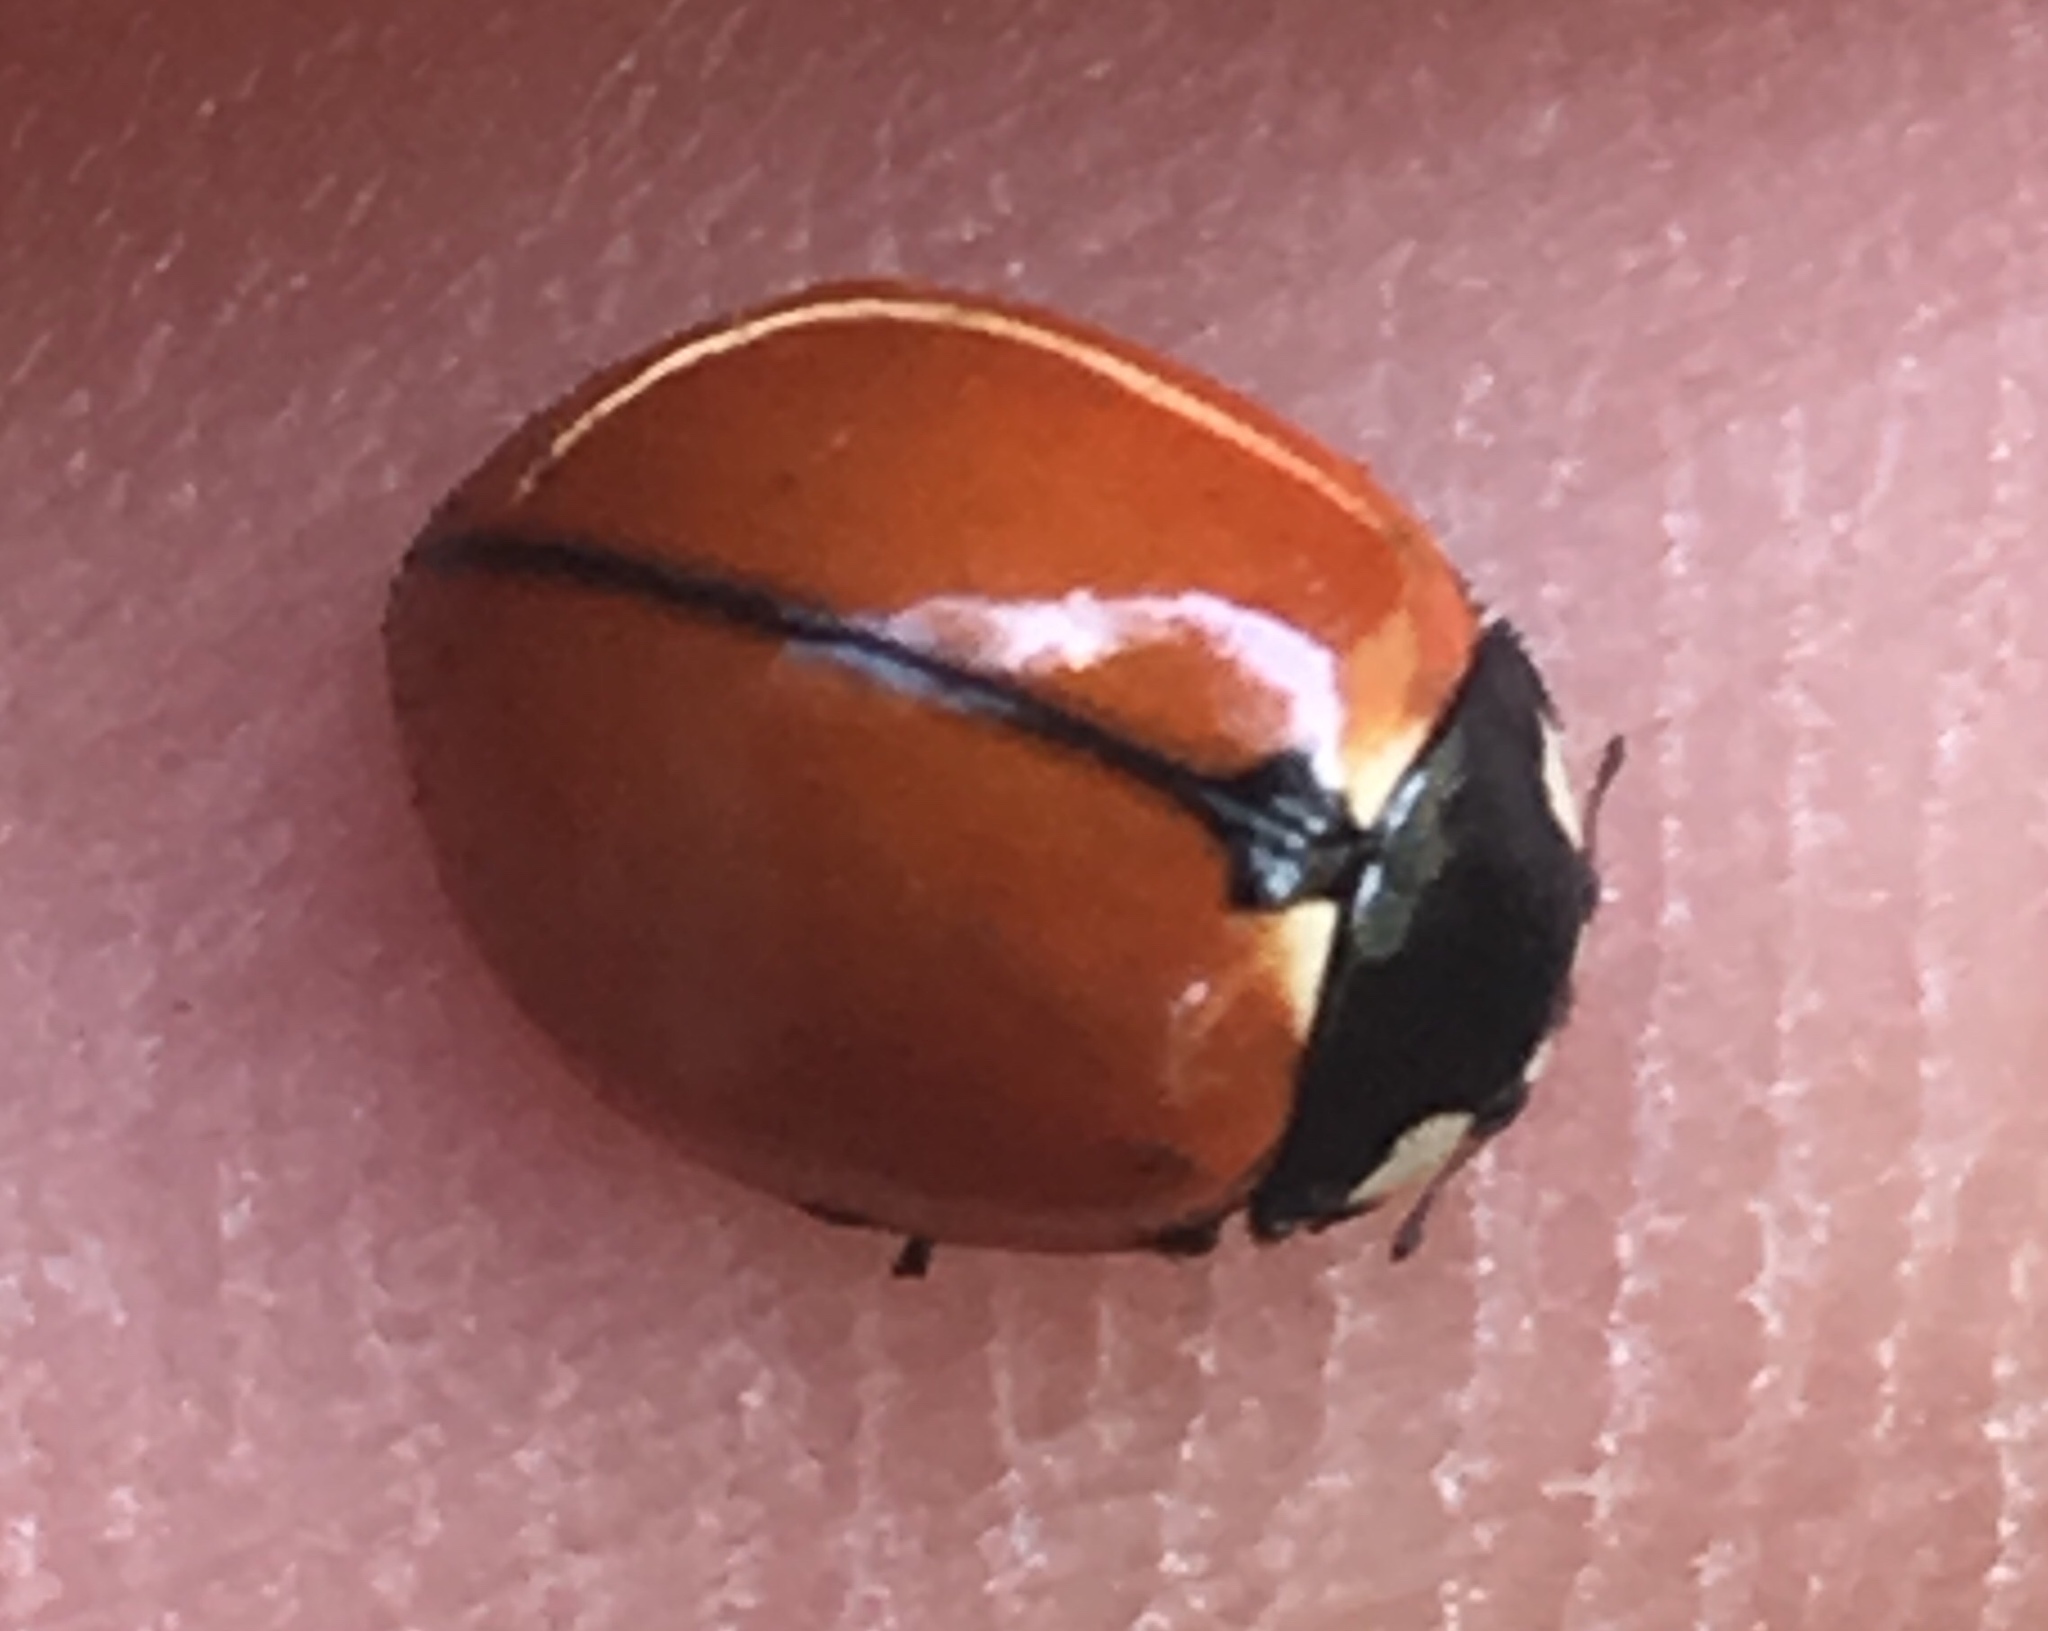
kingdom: Animalia
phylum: Arthropoda
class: Insecta
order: Coleoptera
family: Coccinellidae
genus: Coccinella
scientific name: Coccinella californica
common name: Lady beetle
